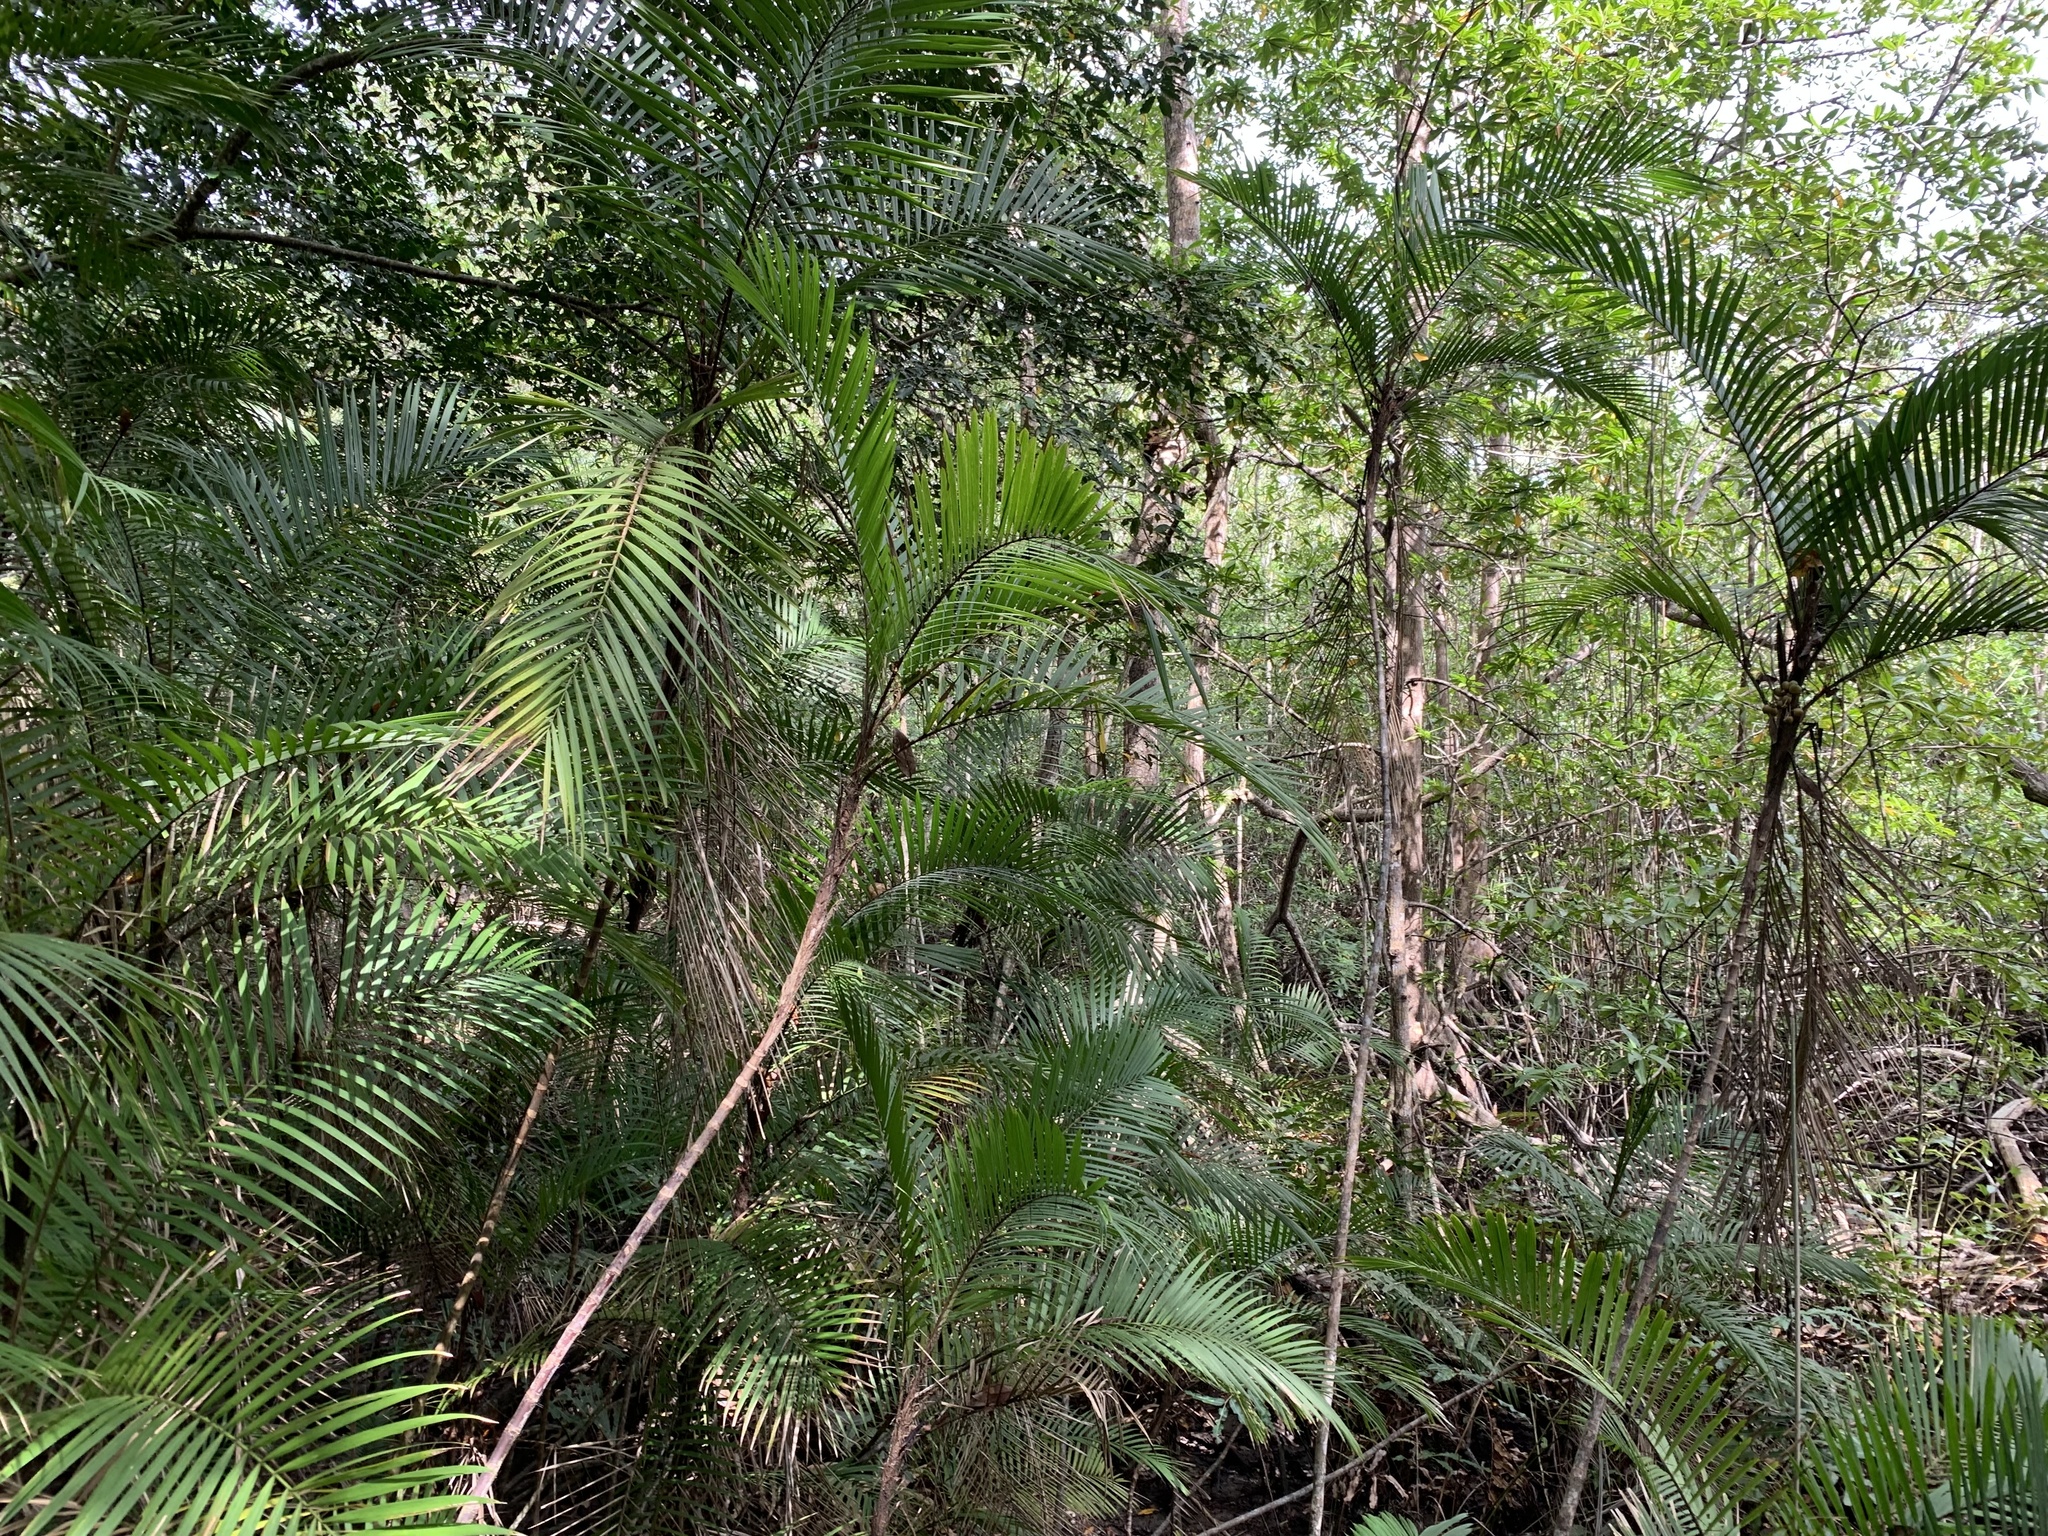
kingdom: Plantae
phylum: Tracheophyta
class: Liliopsida
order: Arecales
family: Arecaceae
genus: Bactris
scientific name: Bactris major
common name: Beach palm
